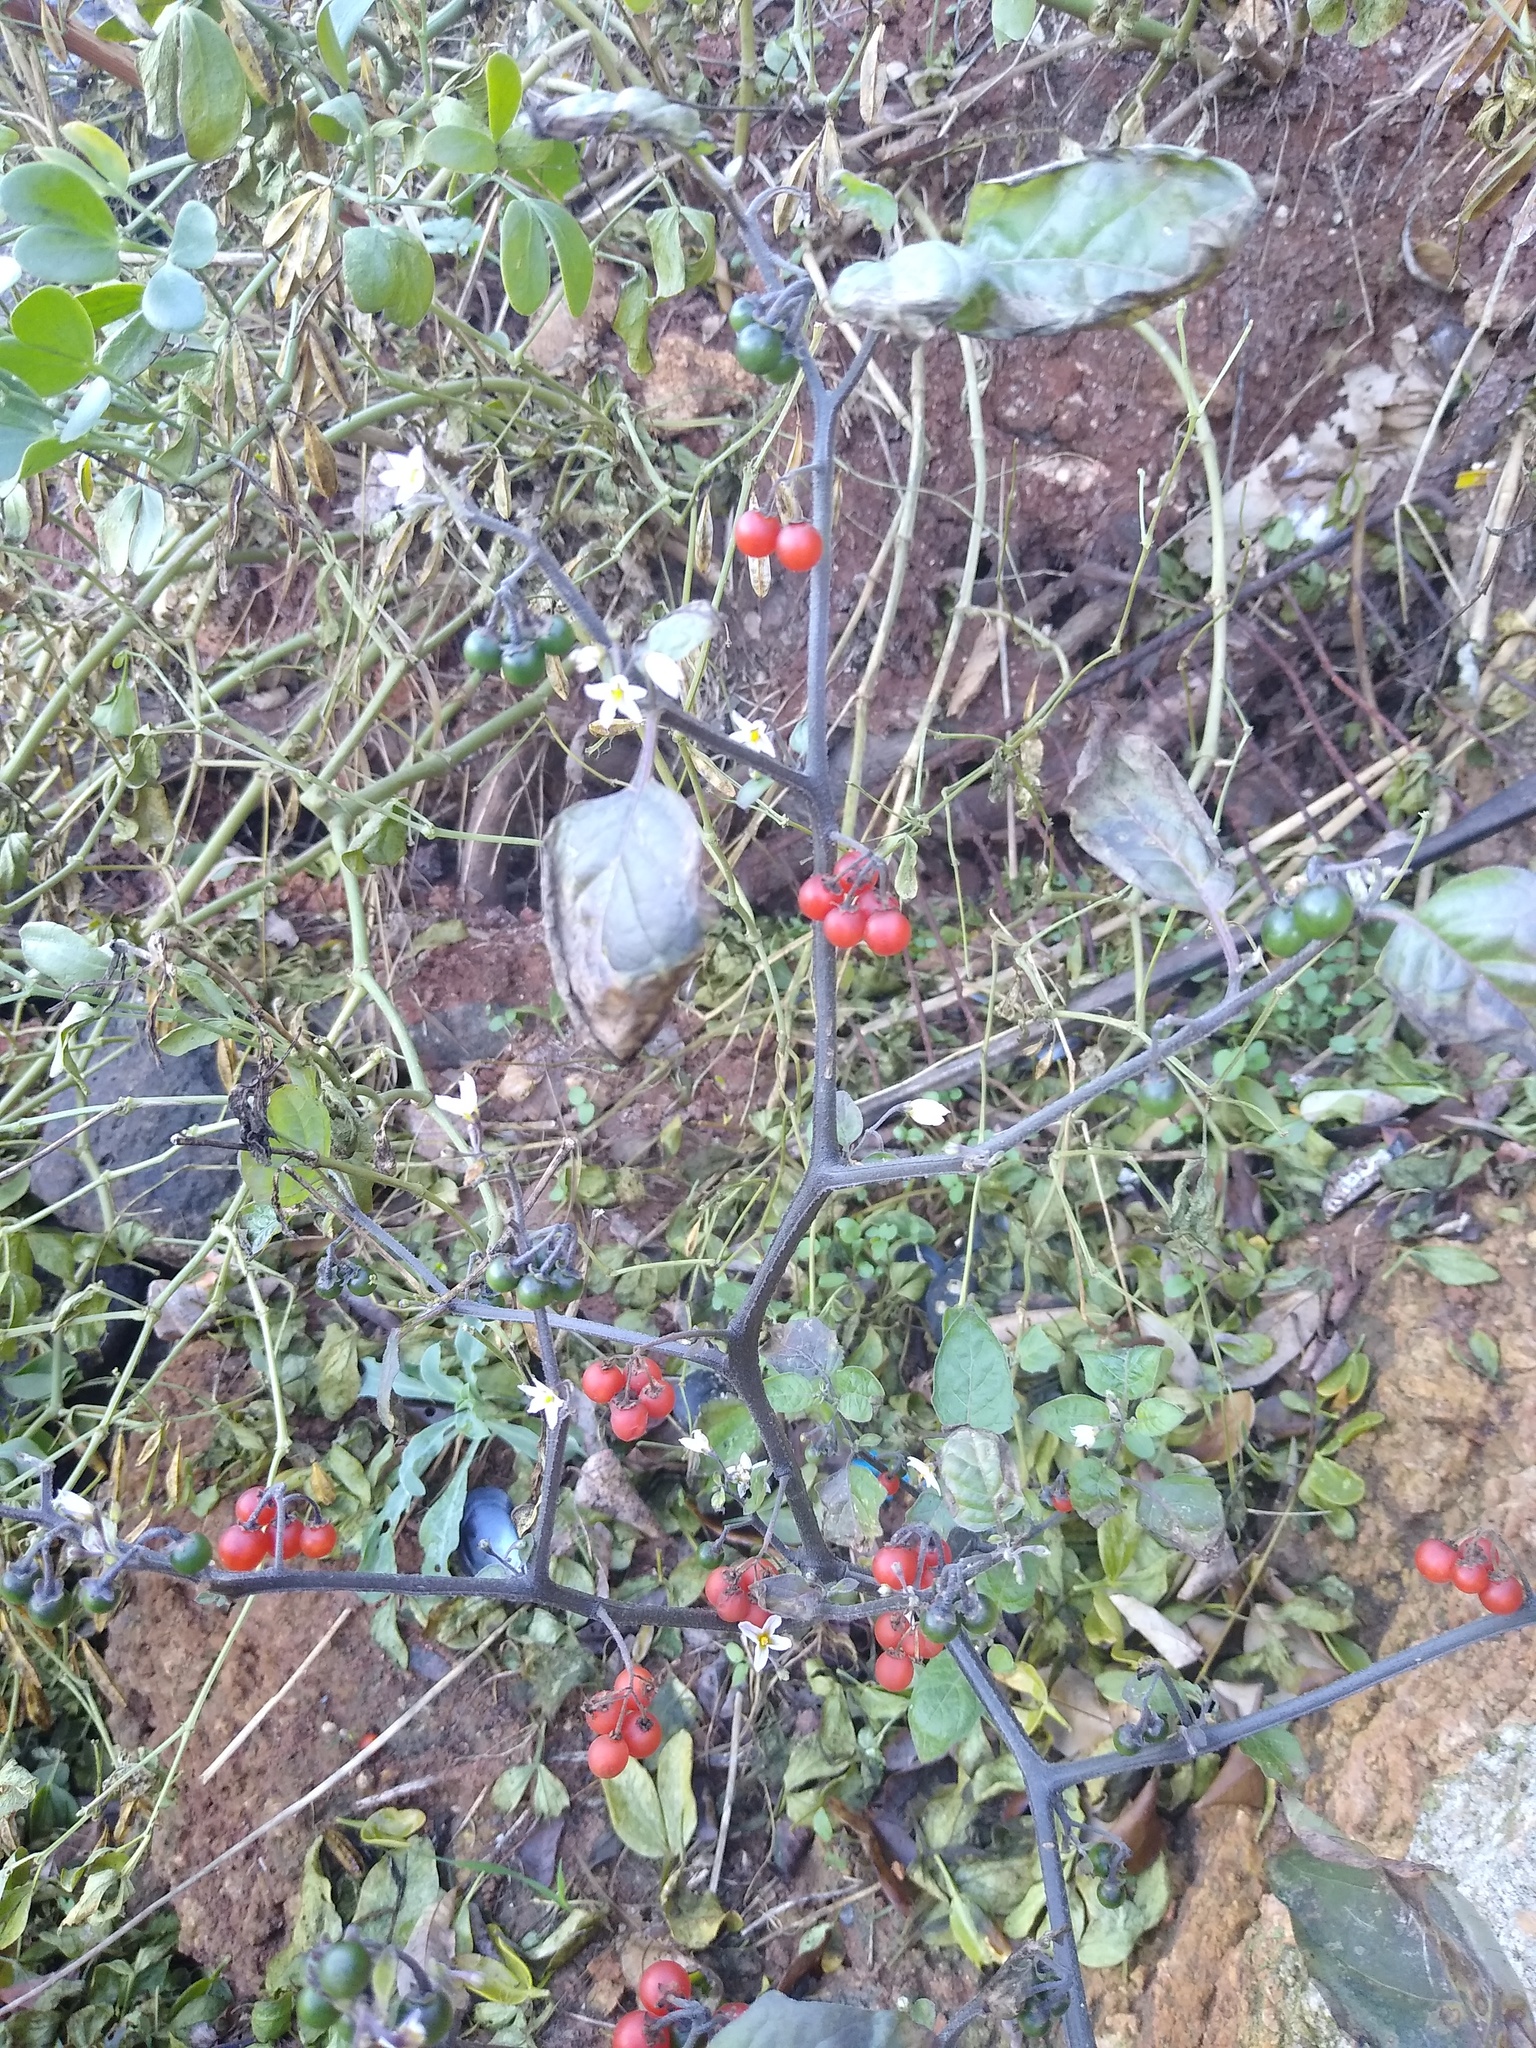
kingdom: Plantae
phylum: Tracheophyta
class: Magnoliopsida
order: Solanales
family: Solanaceae
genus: Solanum
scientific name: Solanum villosum
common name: Red nightshade
